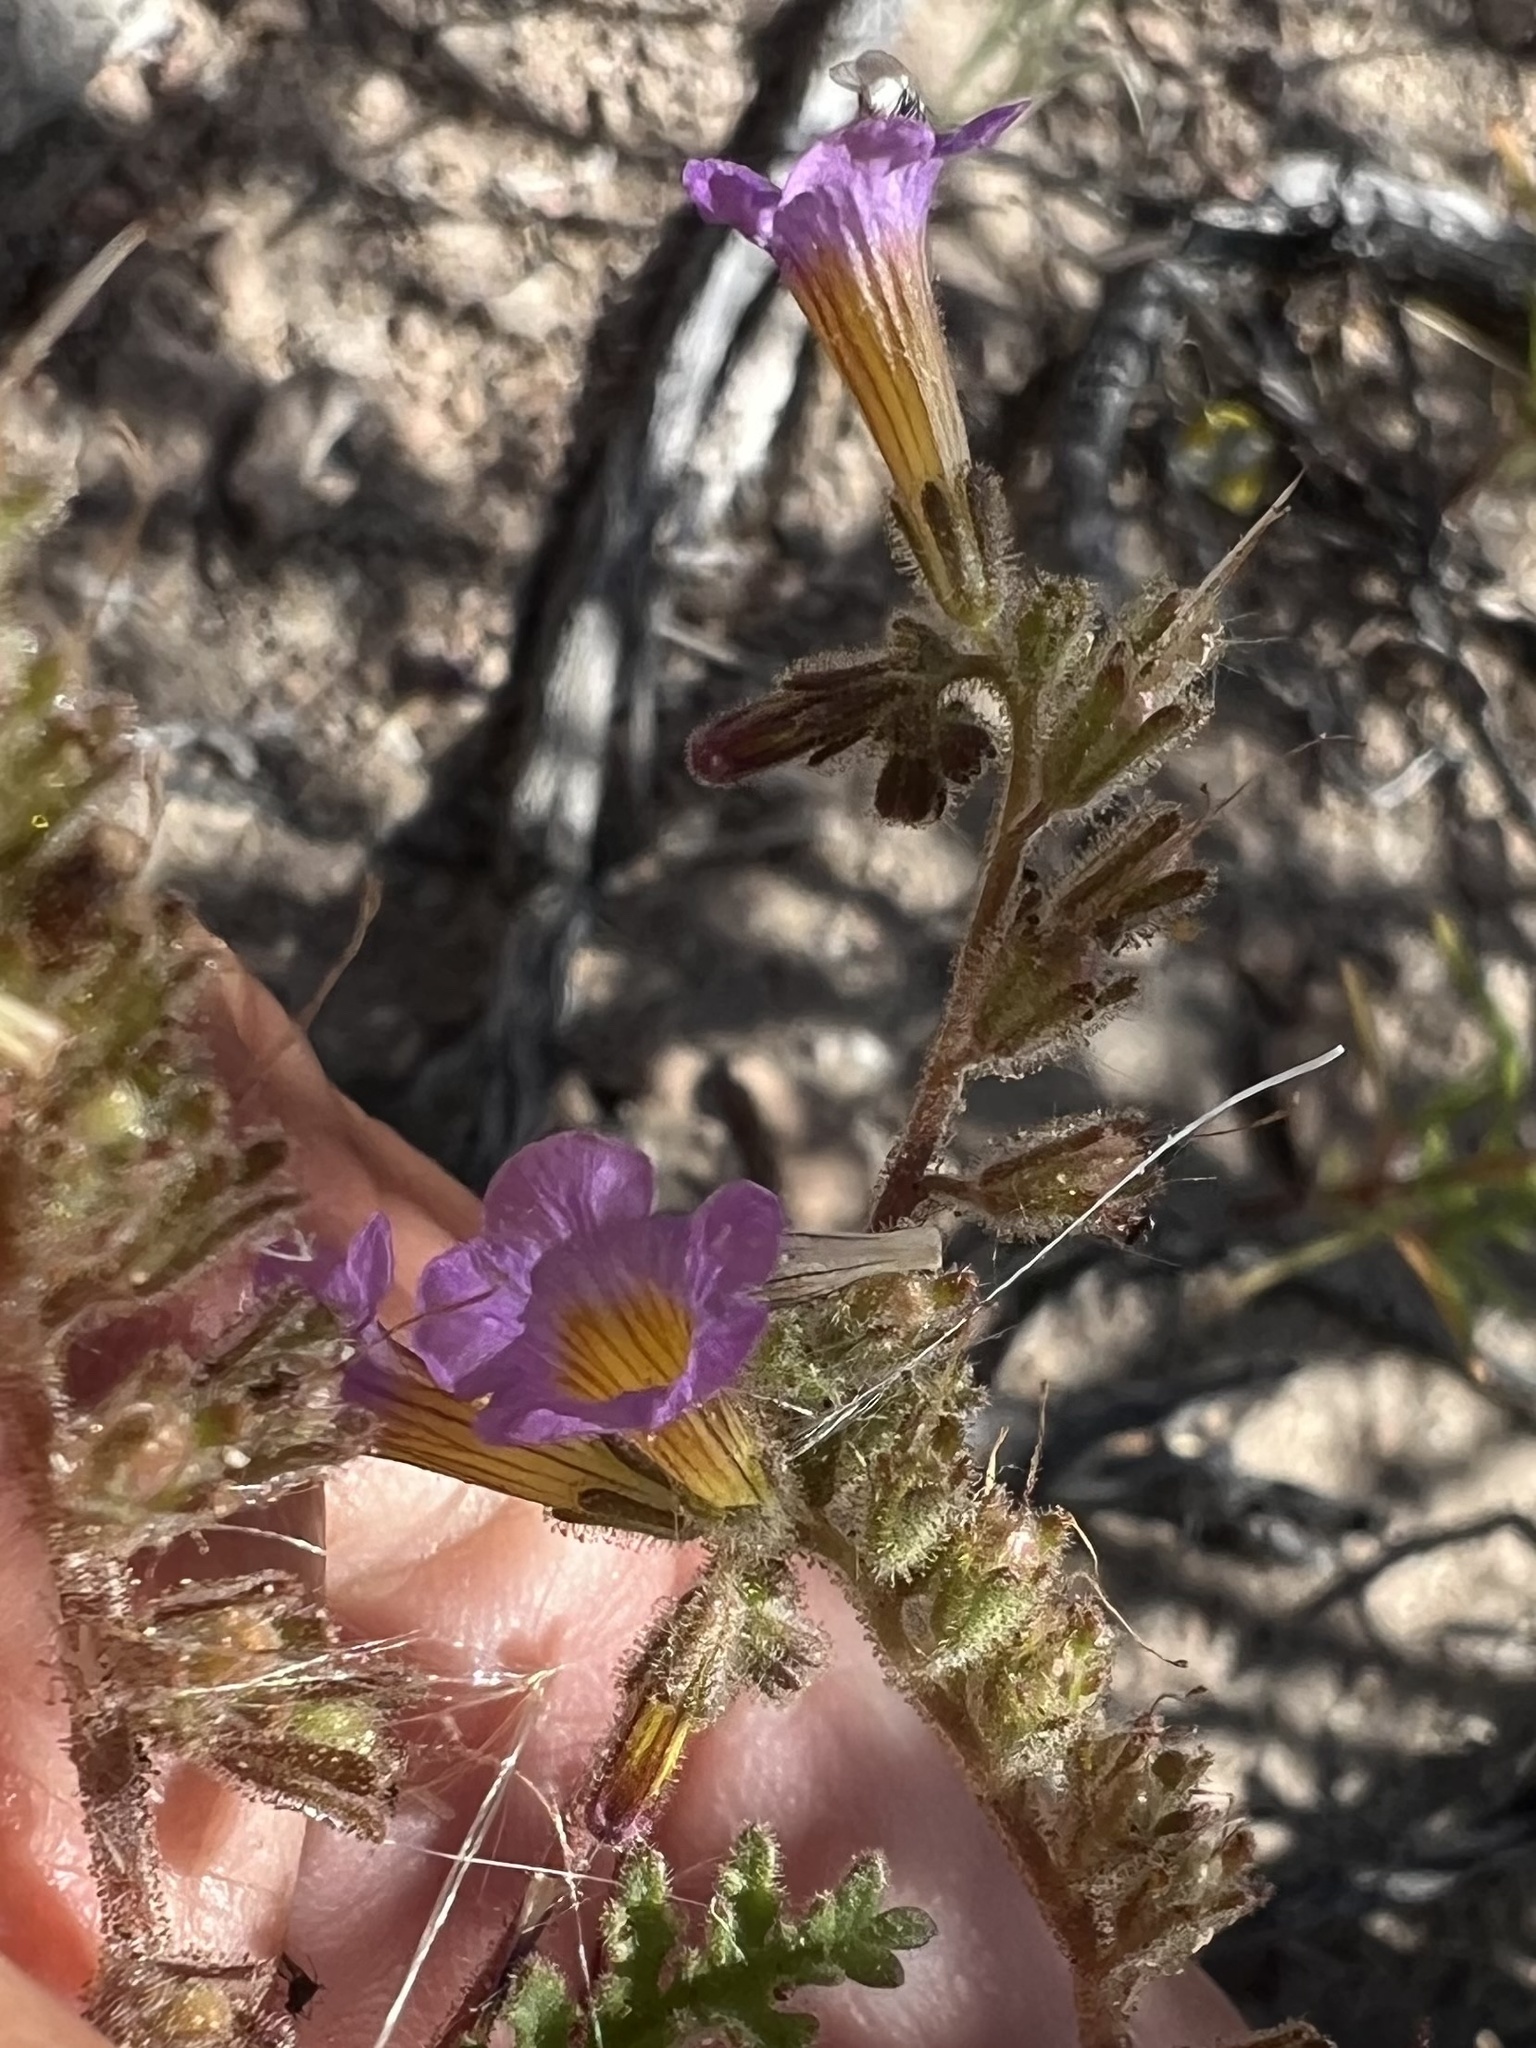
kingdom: Plantae
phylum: Tracheophyta
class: Magnoliopsida
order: Boraginales
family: Hydrophyllaceae
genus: Phacelia
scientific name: Phacelia bicolor
